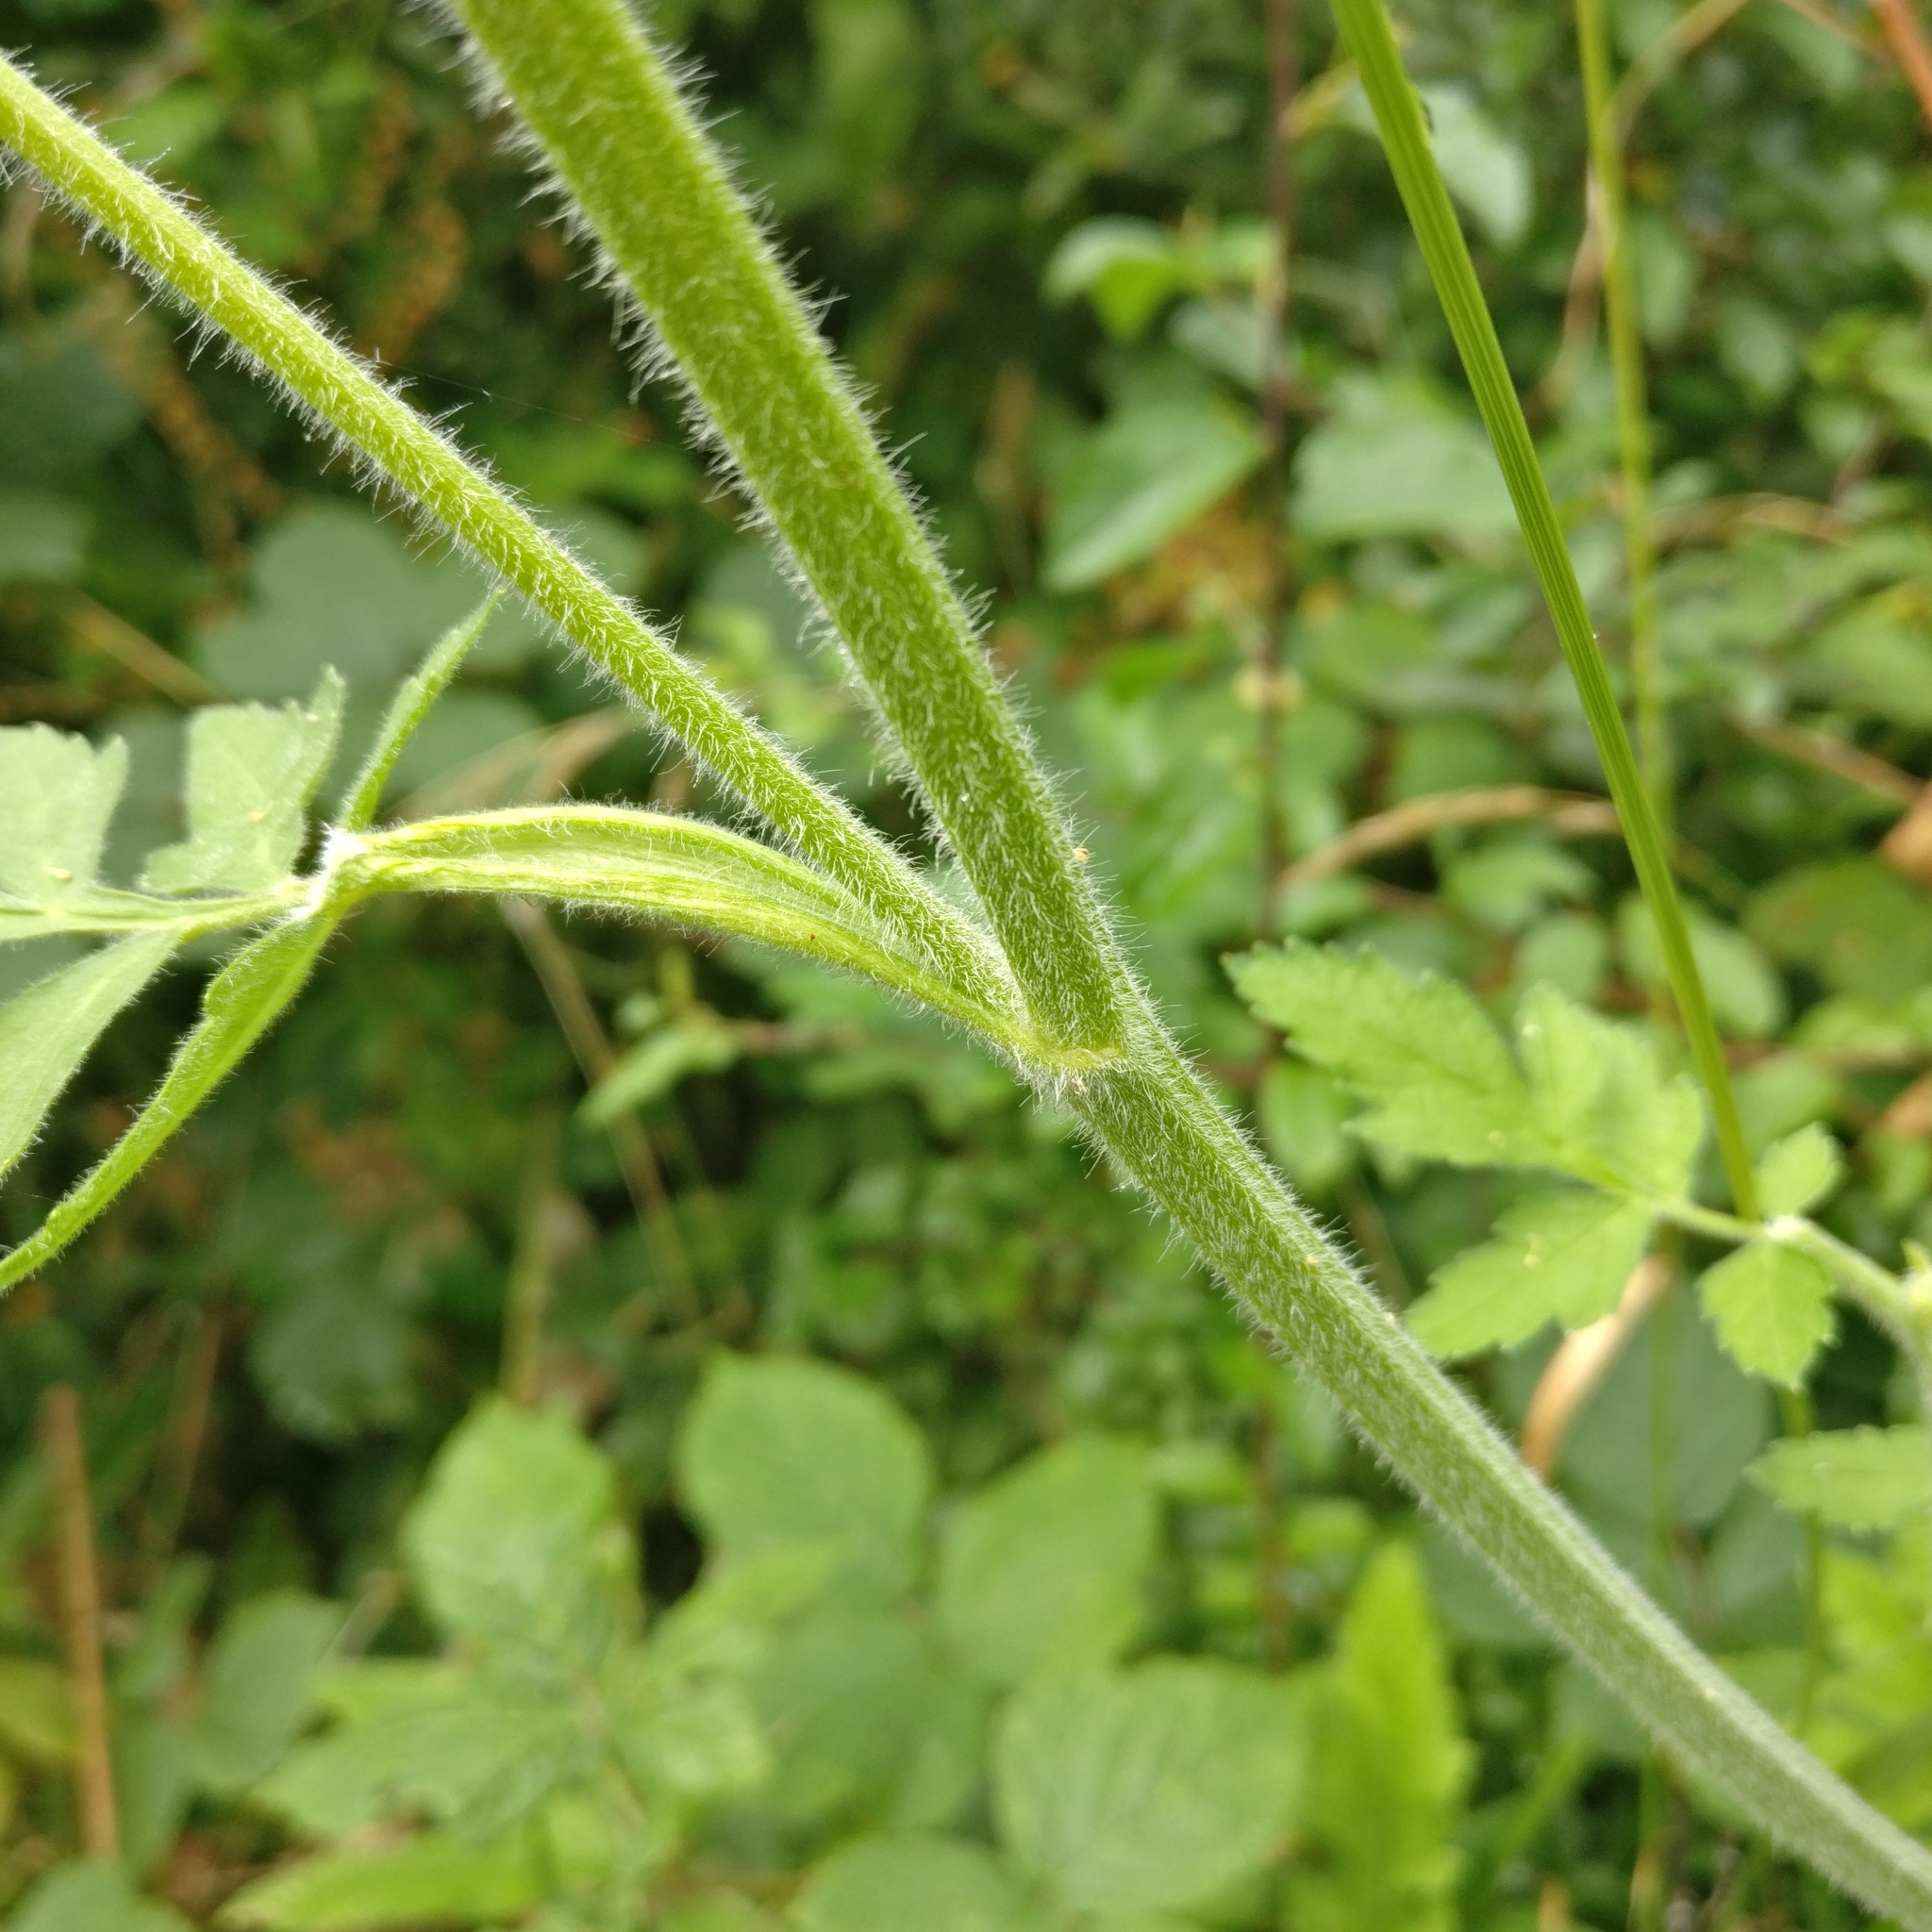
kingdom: Plantae
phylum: Tracheophyta
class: Magnoliopsida
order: Apiales
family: Apiaceae
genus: Pastinaca
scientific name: Pastinaca sativa
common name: Wild parsnip
